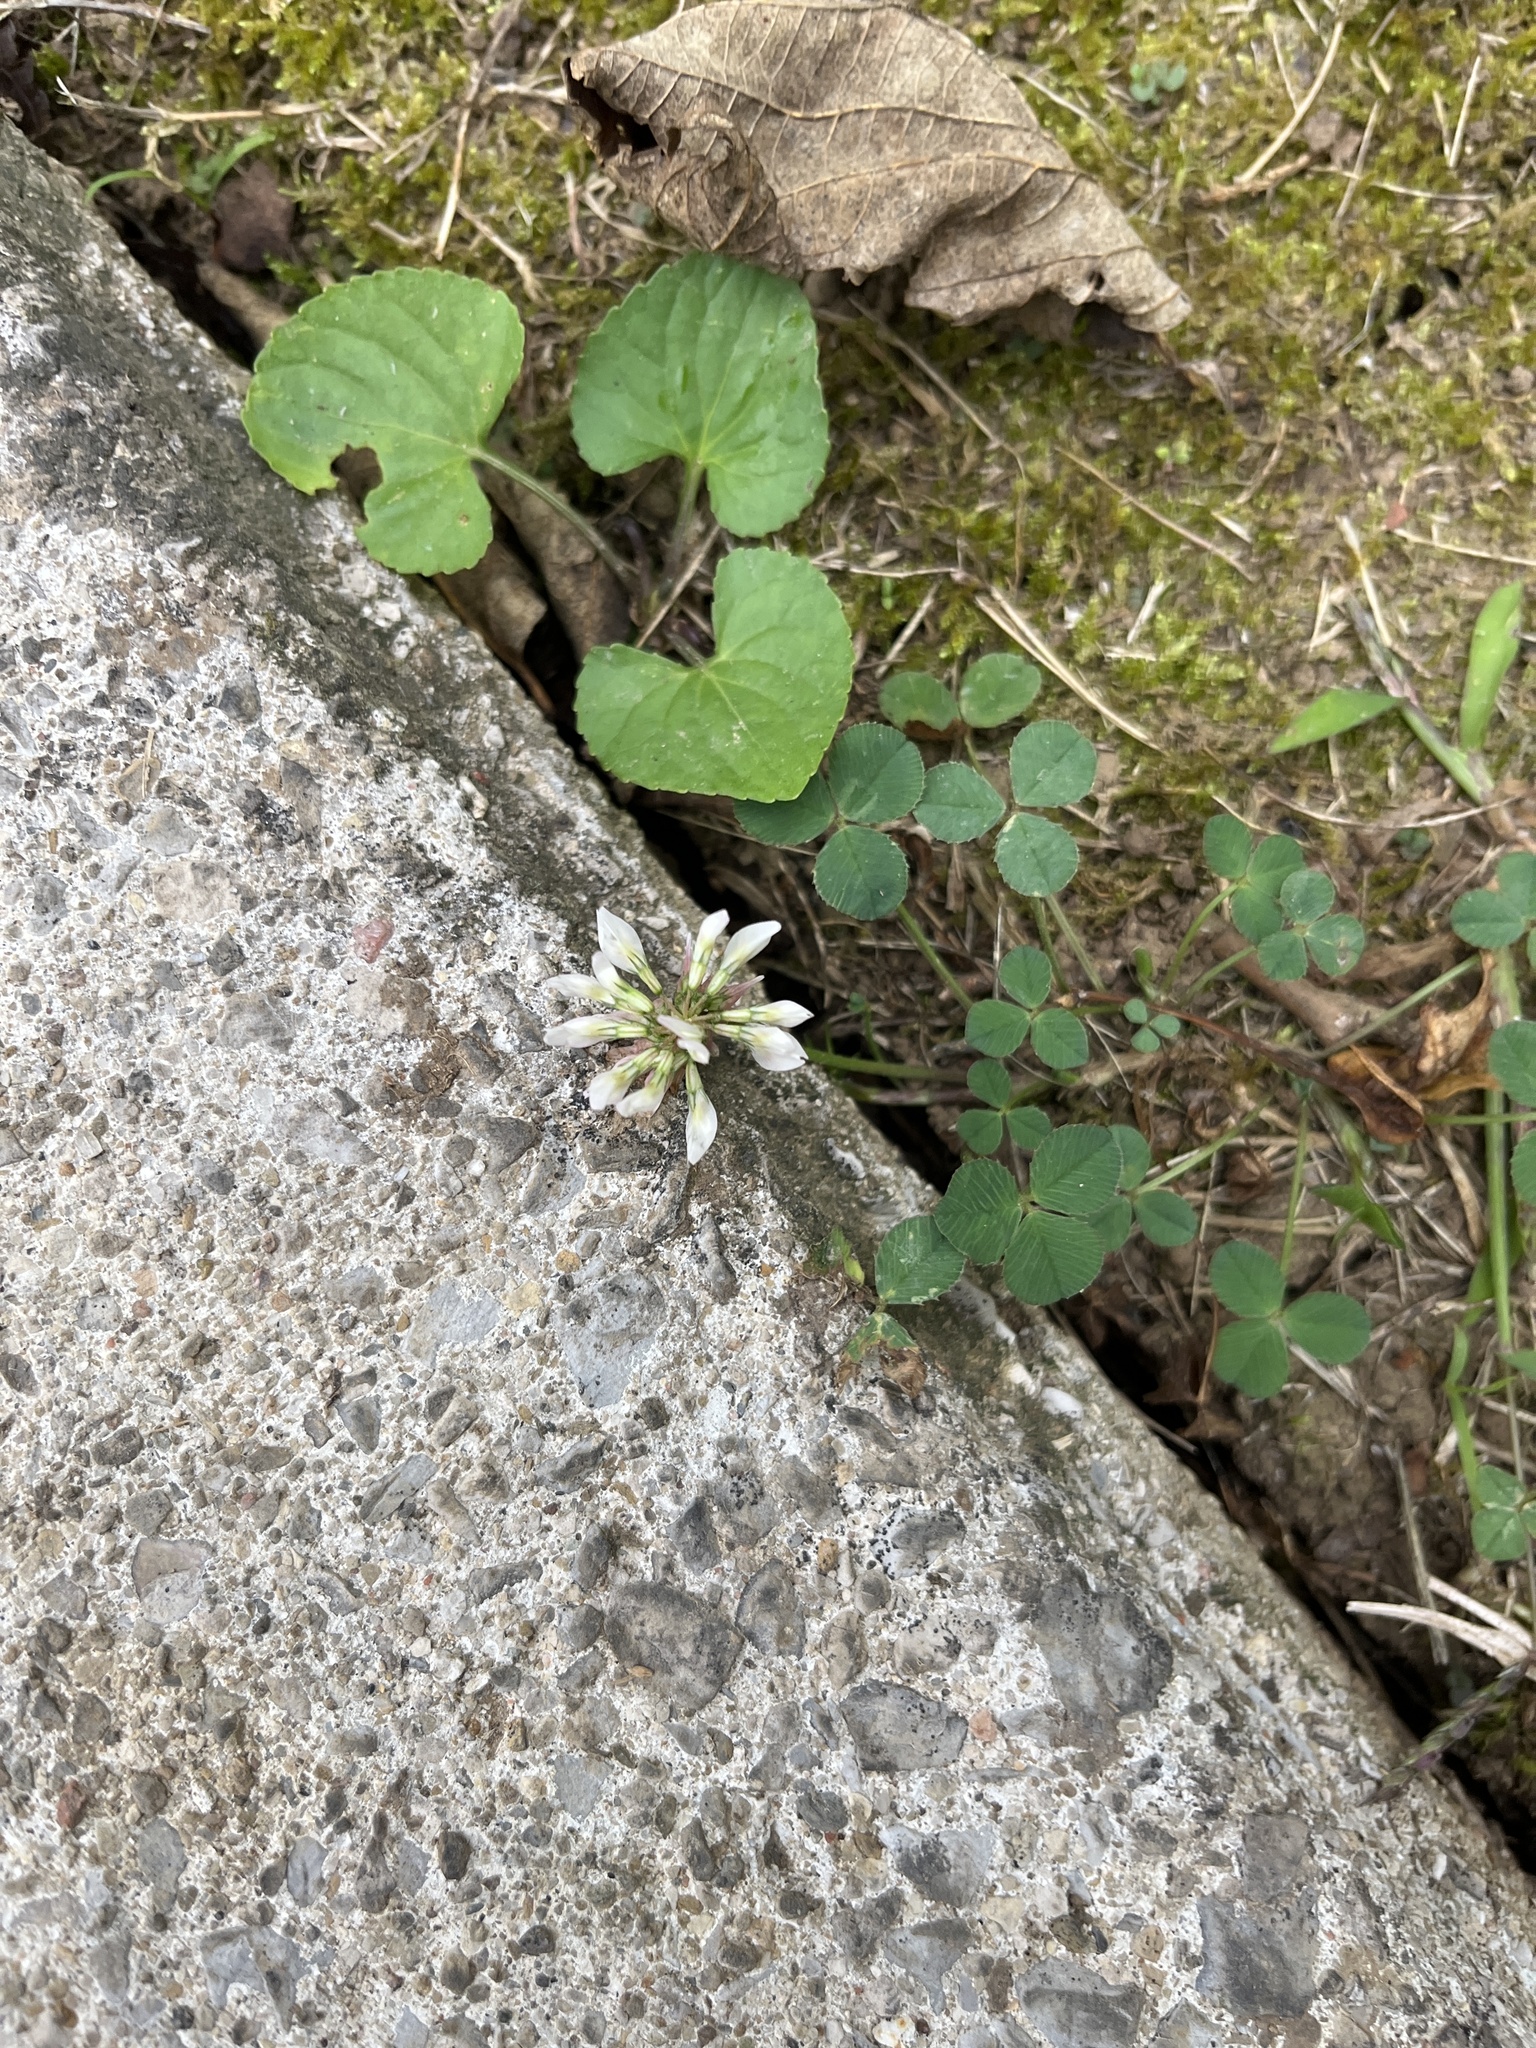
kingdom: Plantae
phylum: Tracheophyta
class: Magnoliopsida
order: Fabales
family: Fabaceae
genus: Trifolium
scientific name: Trifolium repens
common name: White clover
